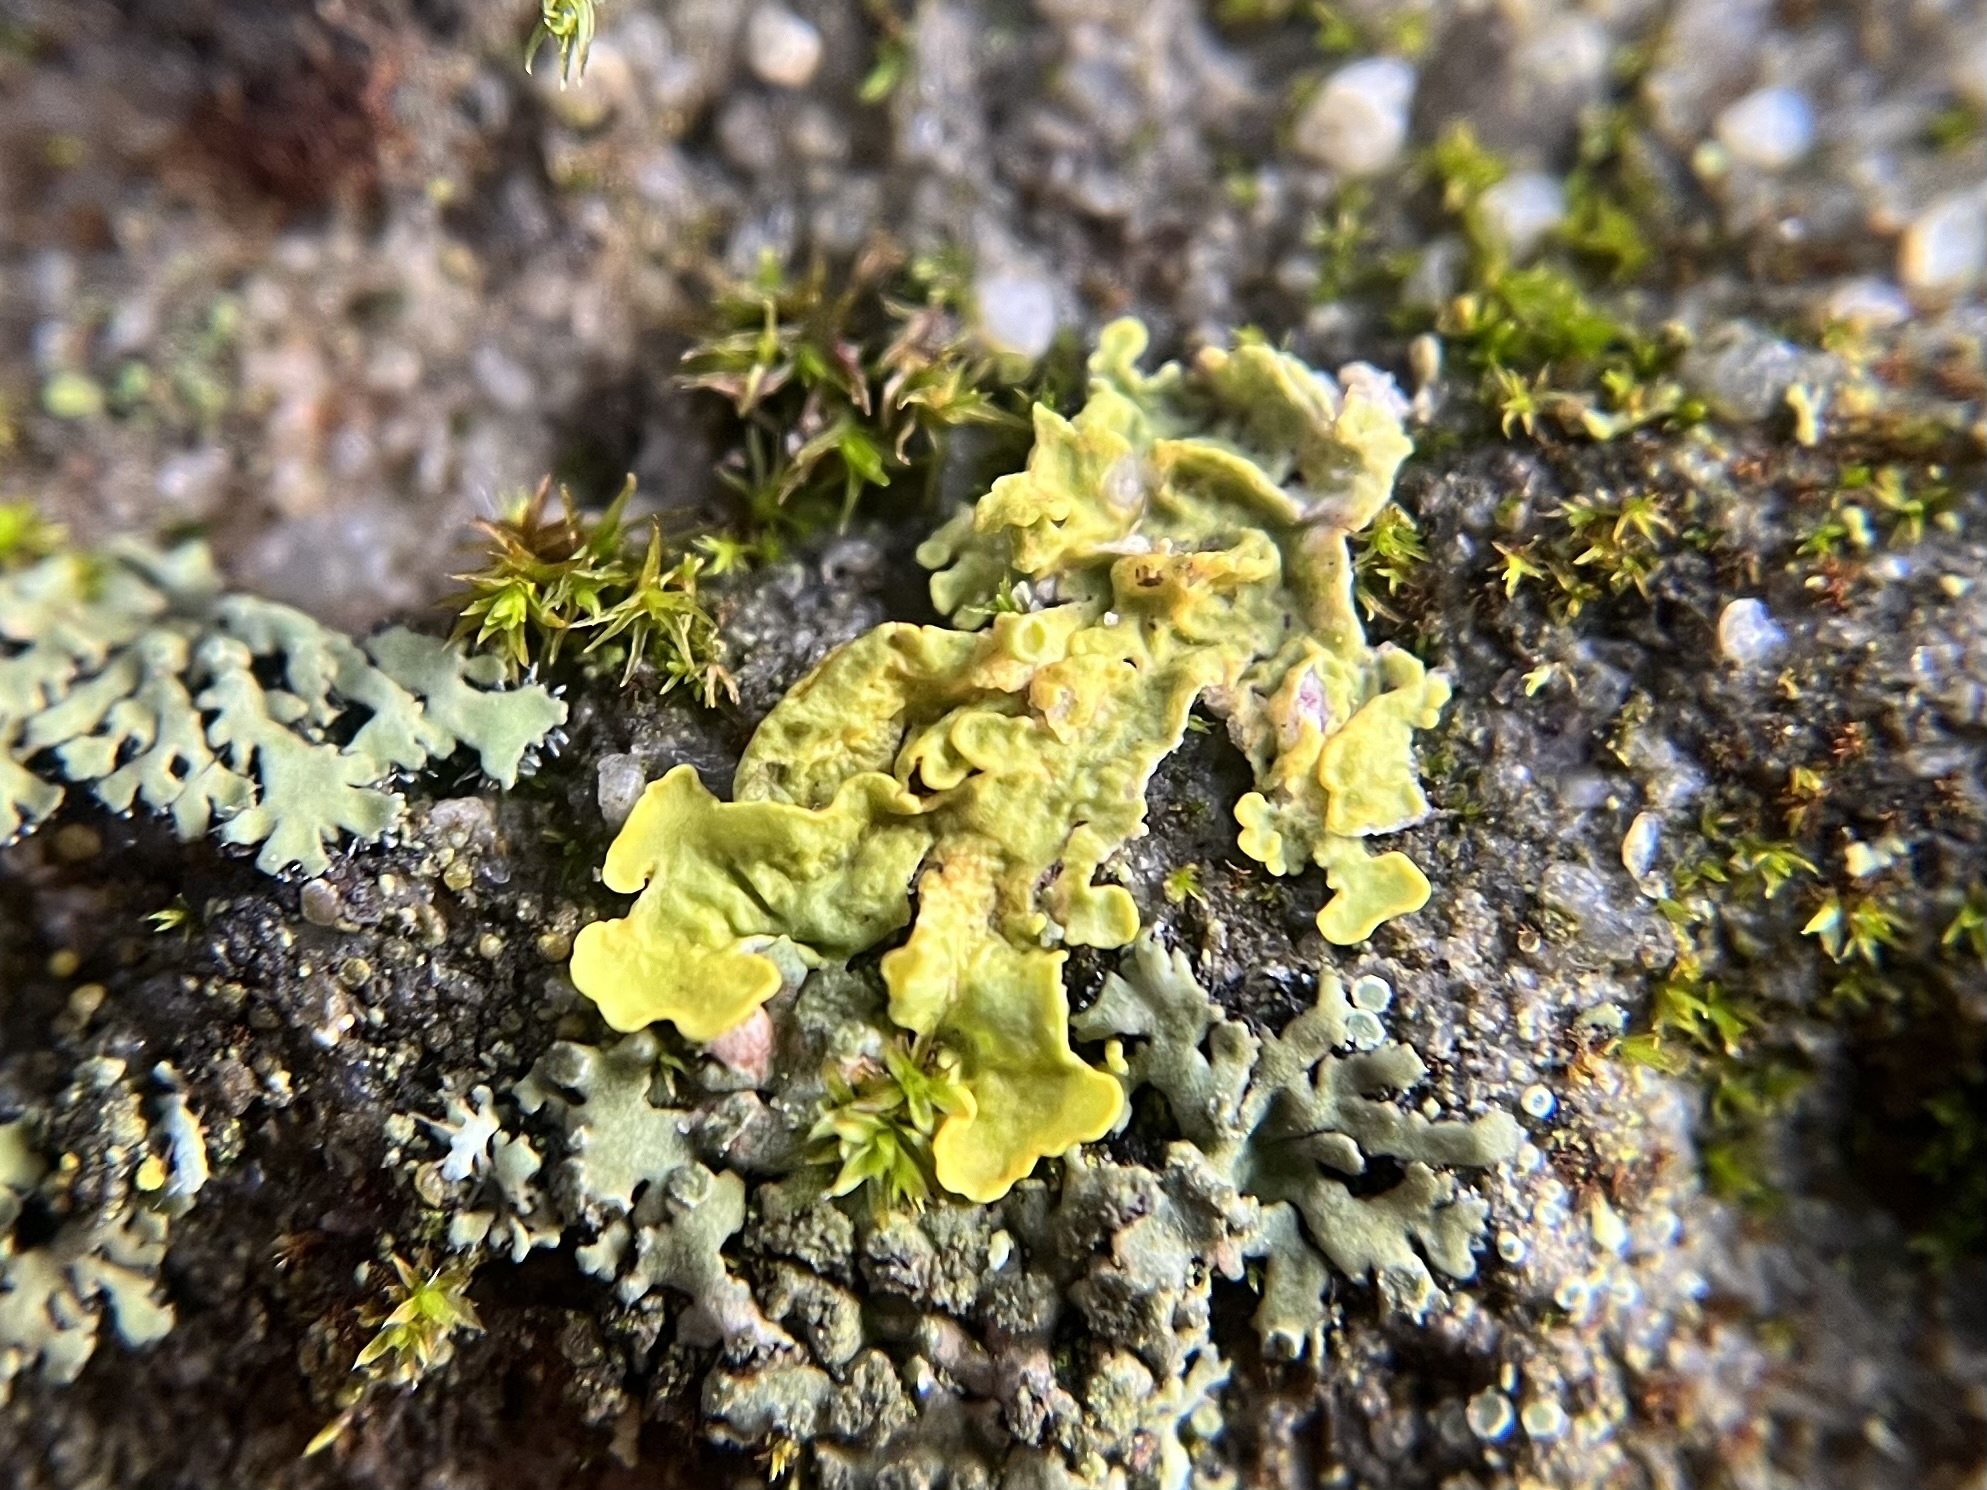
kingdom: Fungi
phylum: Ascomycota
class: Lecanoromycetes
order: Teloschistales
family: Teloschistaceae
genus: Xanthoria
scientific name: Xanthoria parietina
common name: Common orange lichen
